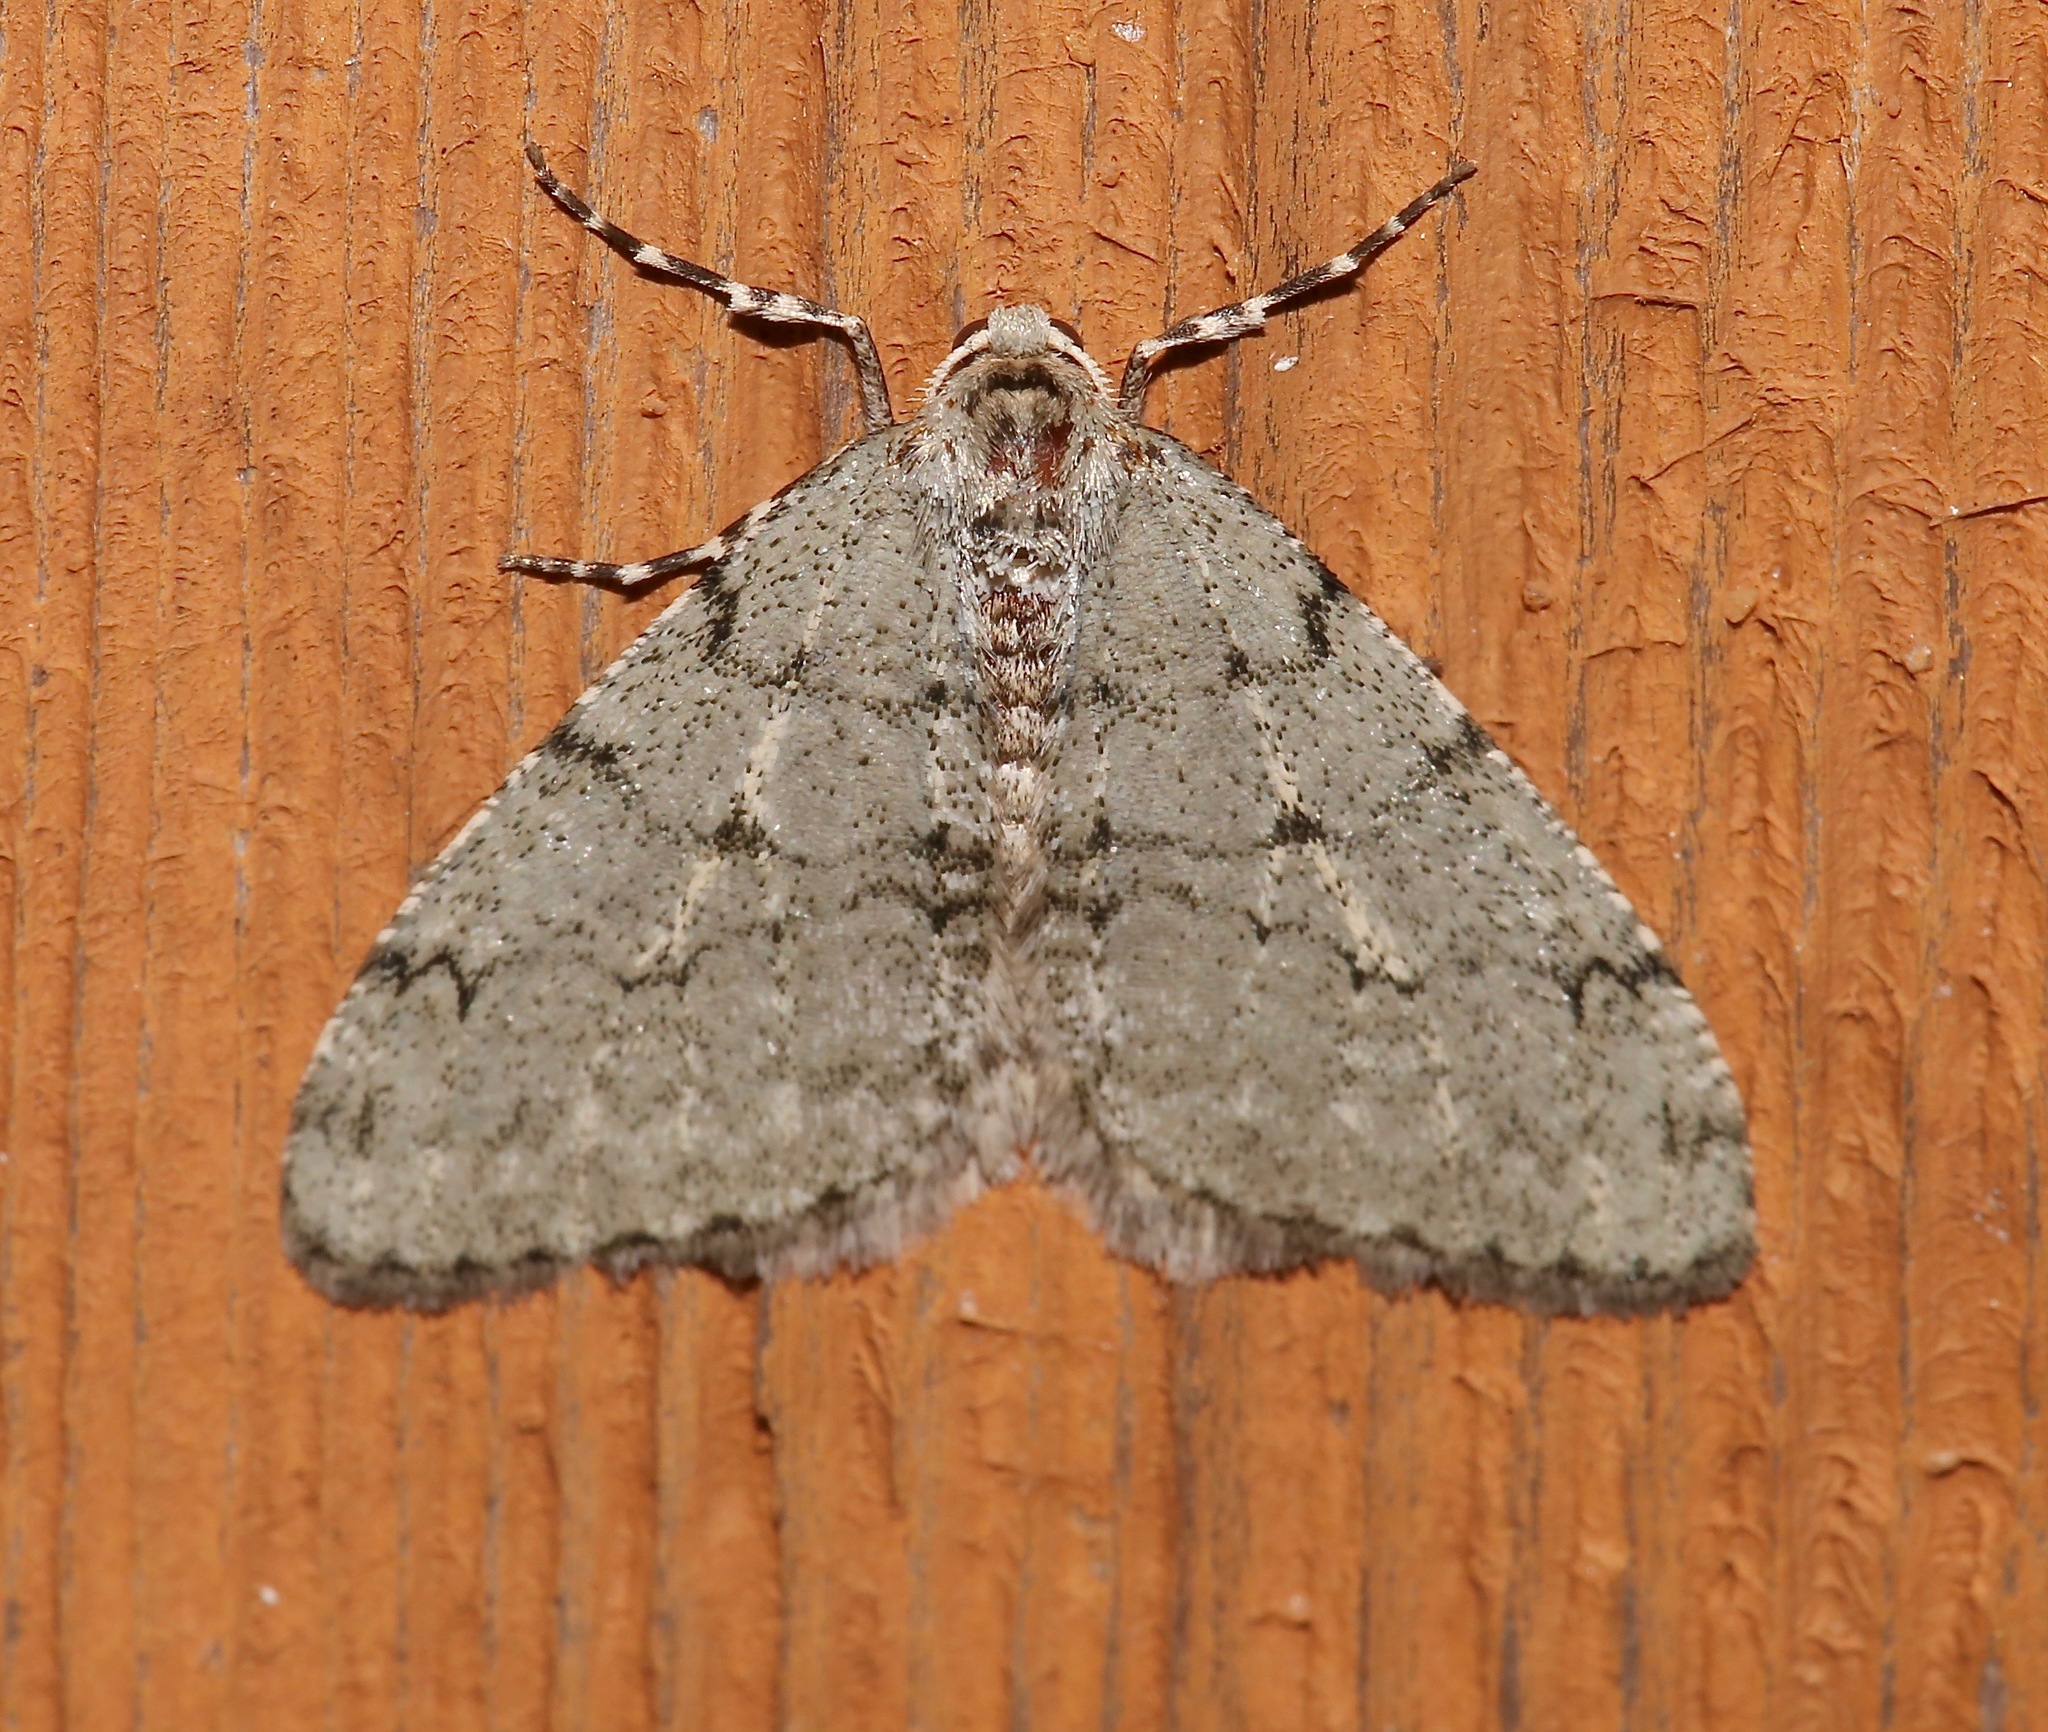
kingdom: Animalia
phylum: Arthropoda
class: Insecta
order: Lepidoptera
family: Geometridae
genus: Phigalia
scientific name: Phigalia strigataria
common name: Small phigalia
